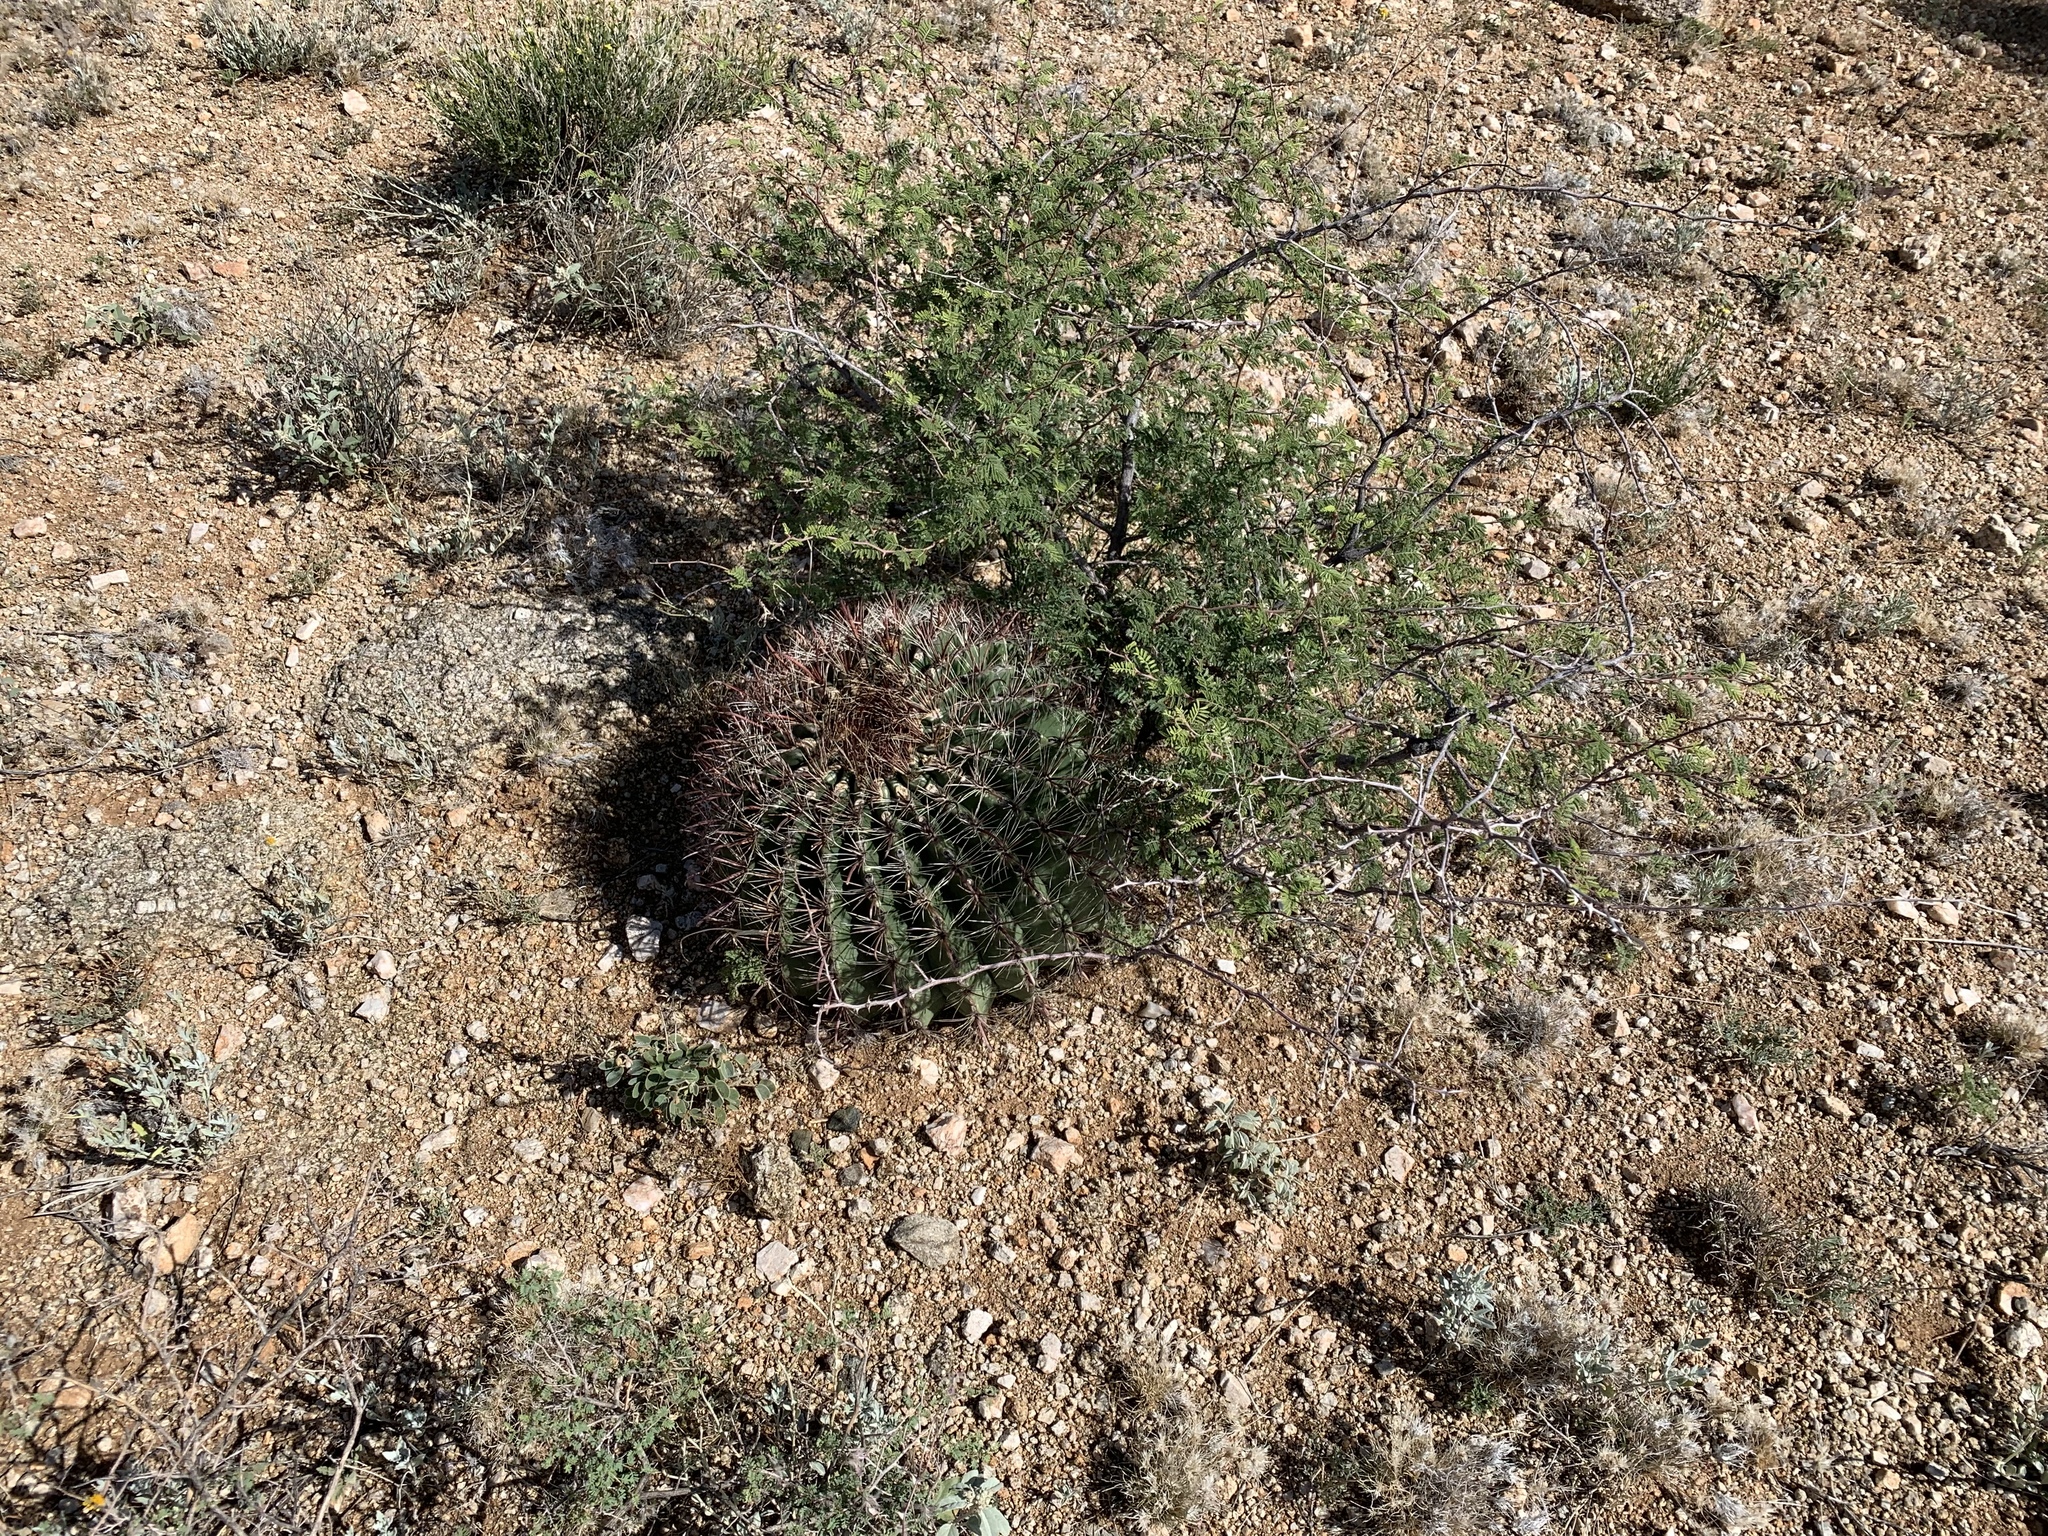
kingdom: Plantae
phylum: Tracheophyta
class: Magnoliopsida
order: Caryophyllales
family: Cactaceae
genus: Ferocactus
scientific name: Ferocactus wislizeni
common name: Candy barrel cactus
